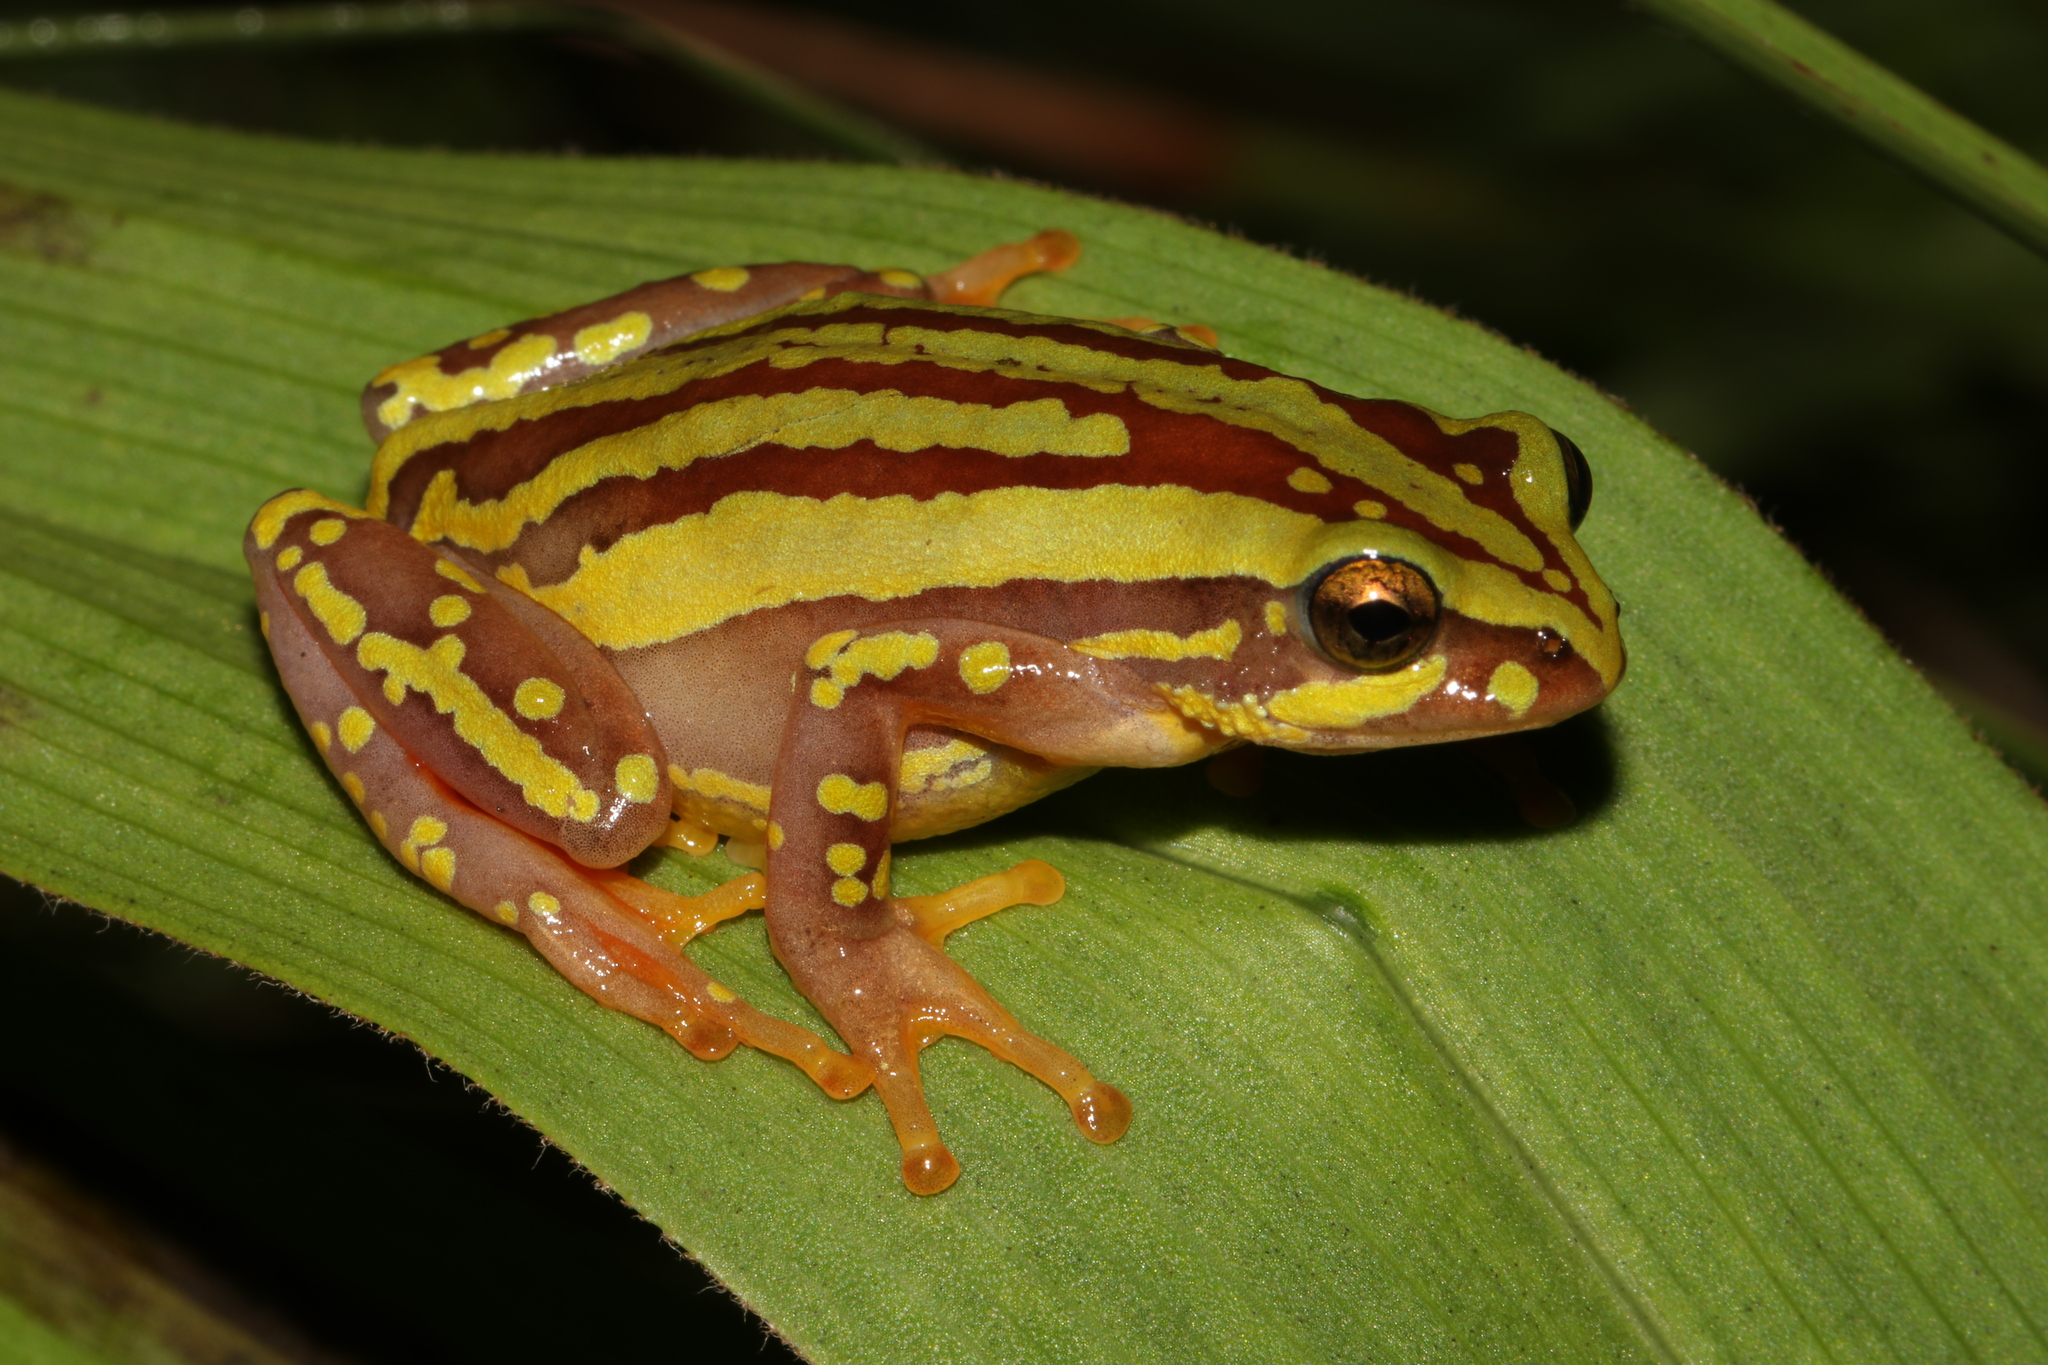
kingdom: Animalia
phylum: Chordata
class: Amphibia
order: Anura
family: Hyperoliidae
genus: Hyperolius
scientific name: Hyperolius pictus
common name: Variable reed frog
